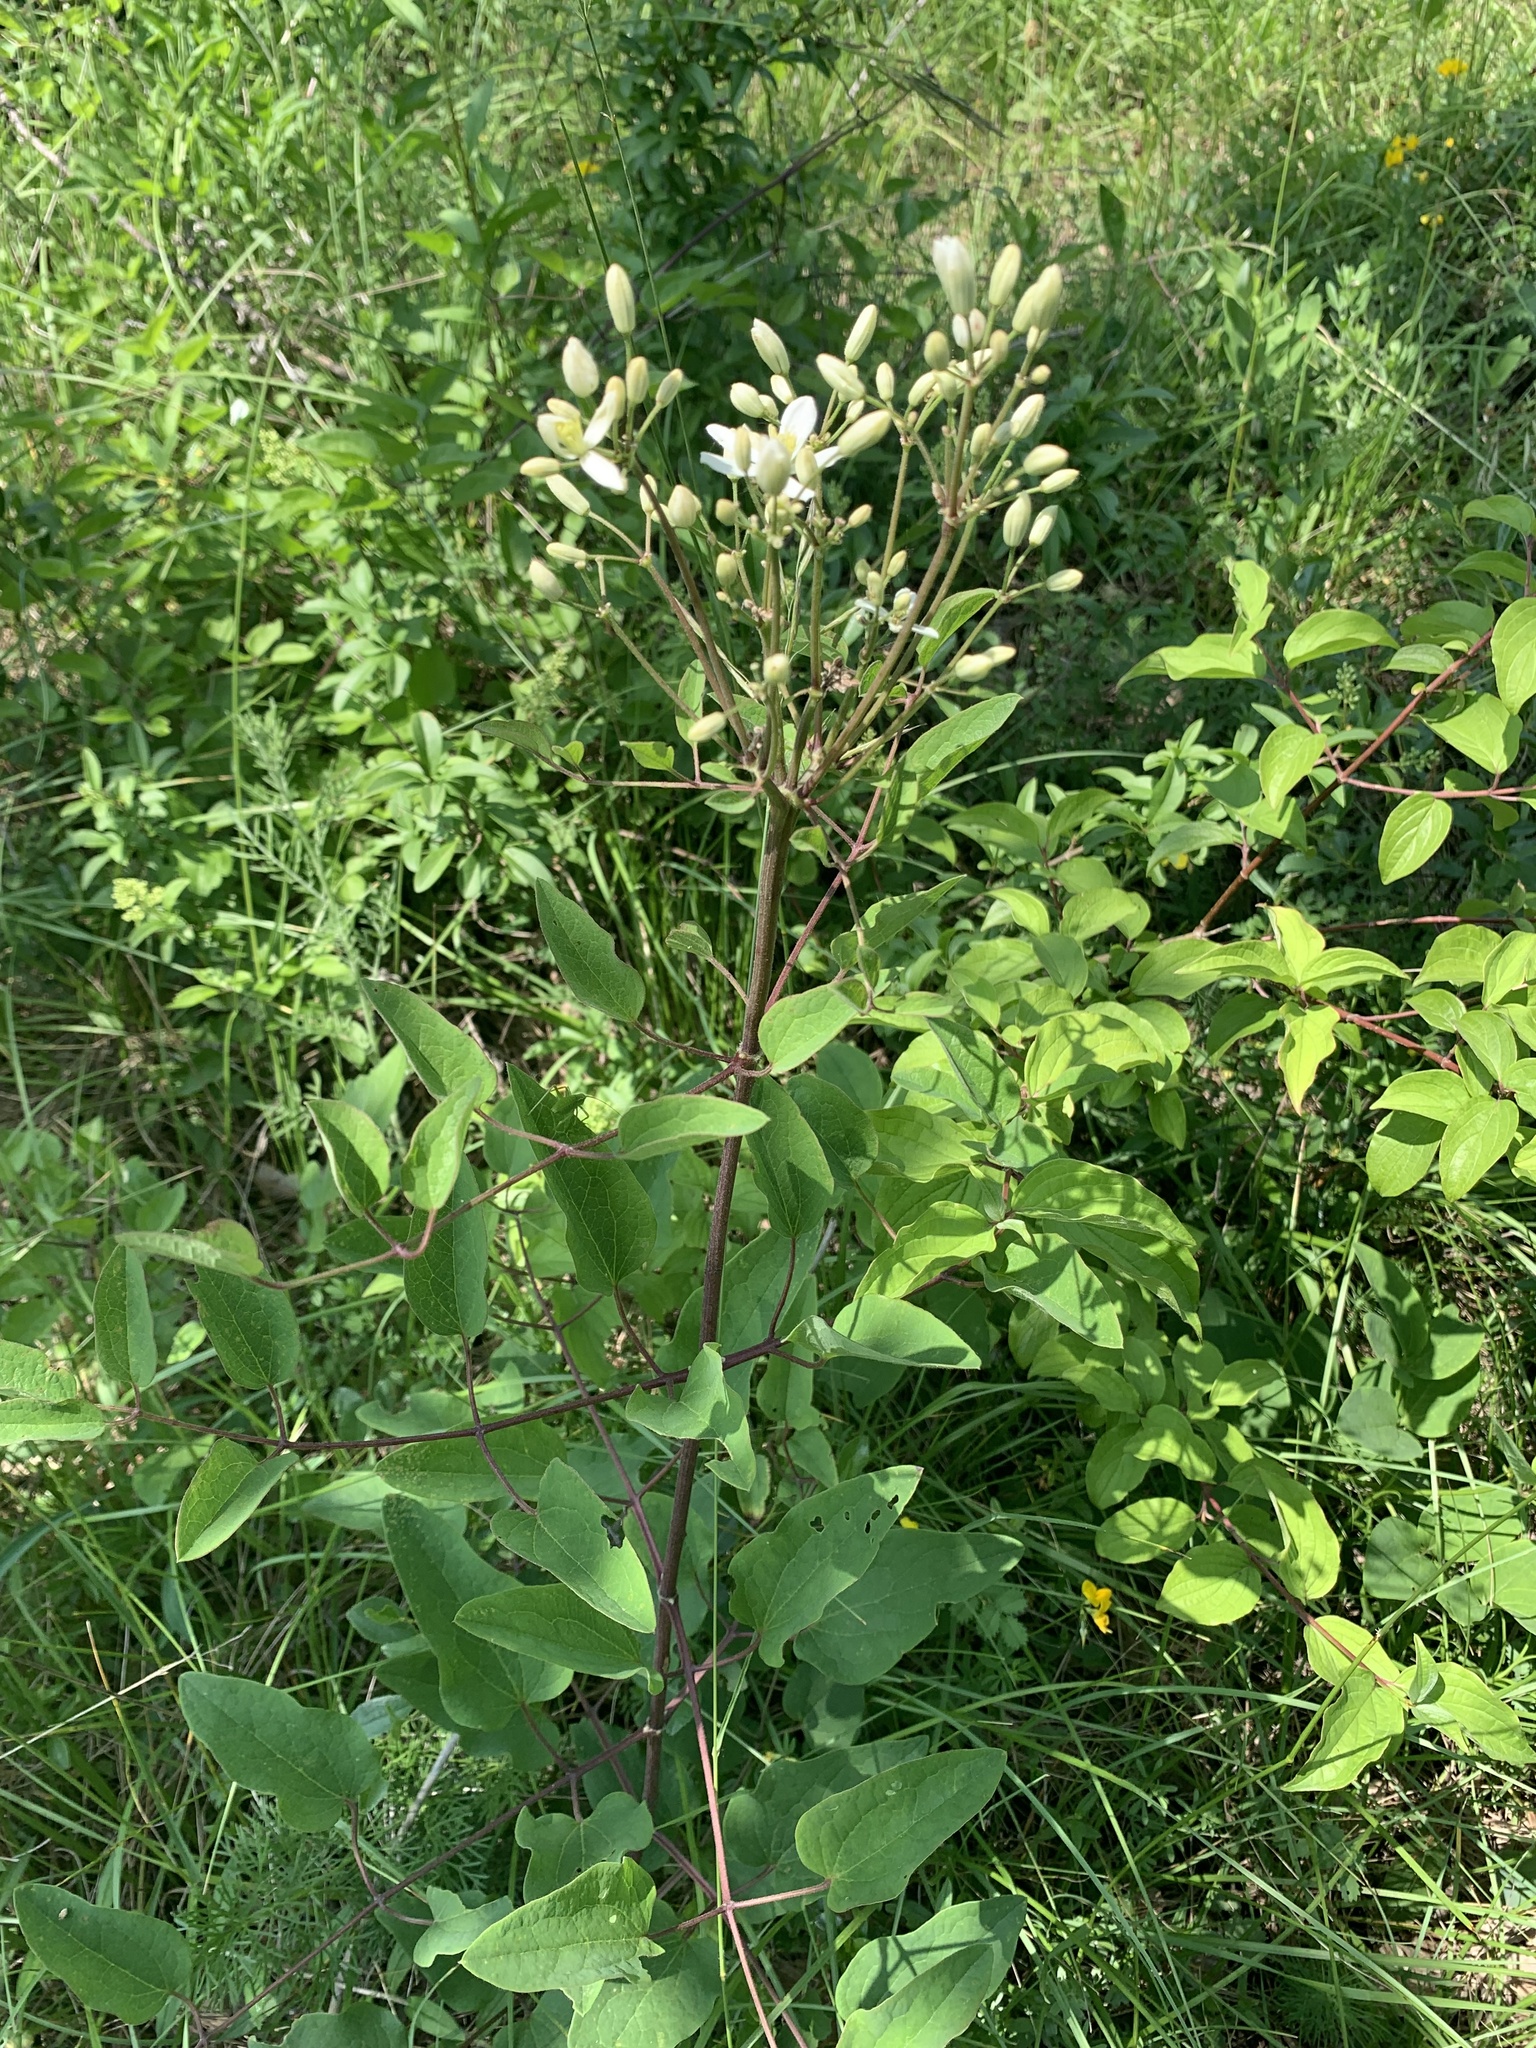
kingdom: Plantae
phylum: Tracheophyta
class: Magnoliopsida
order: Ranunculales
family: Ranunculaceae
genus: Clematis
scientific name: Clematis recta
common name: Ground clematis
